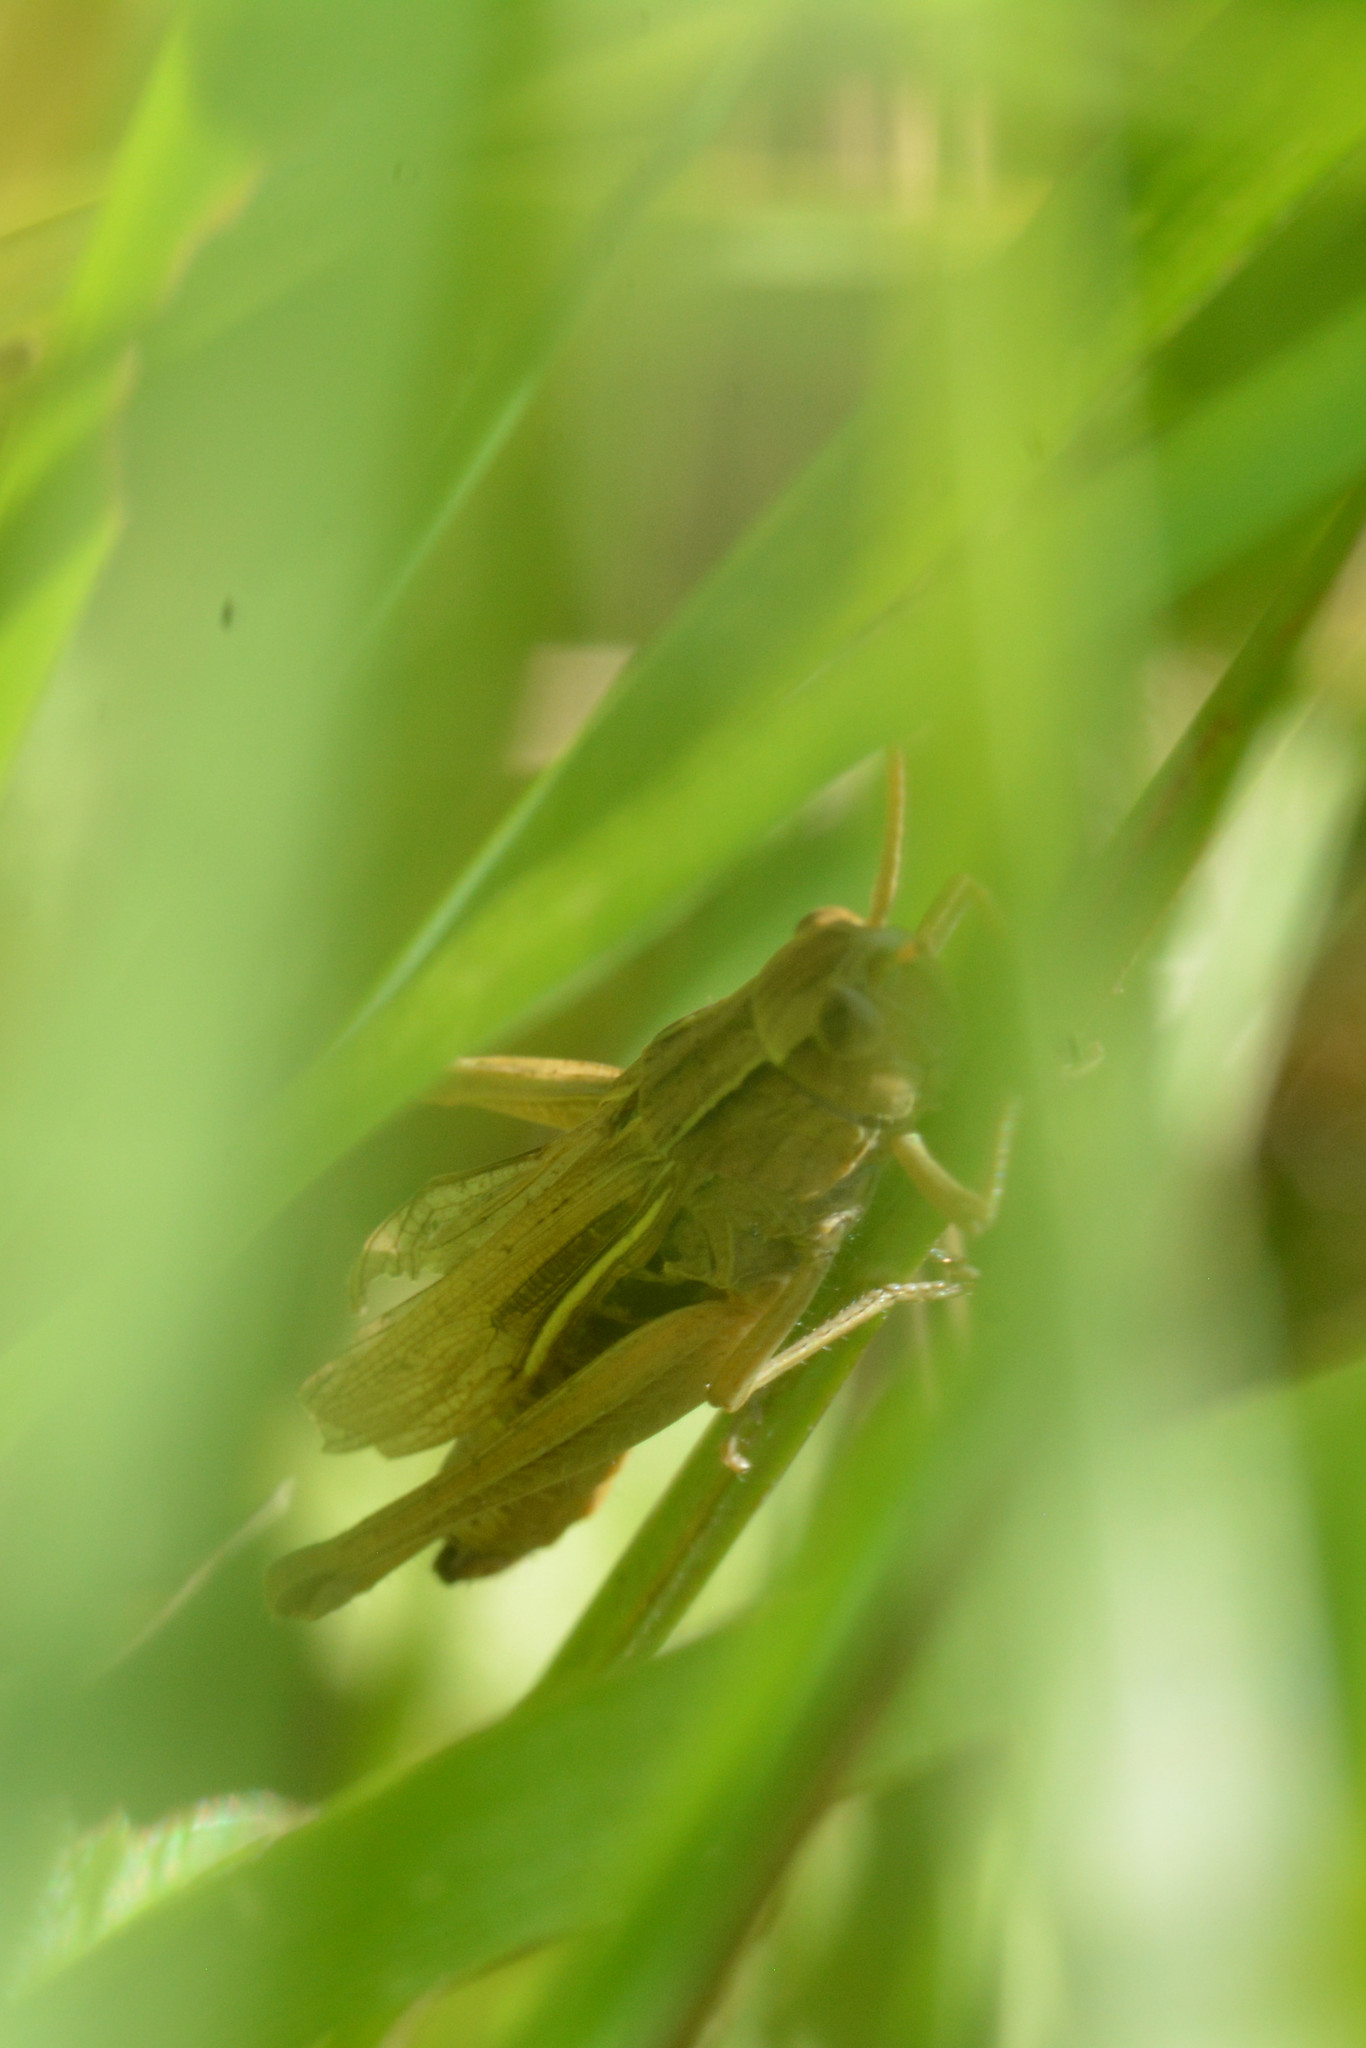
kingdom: Animalia
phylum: Arthropoda
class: Insecta
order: Orthoptera
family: Acrididae
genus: Chorthippus
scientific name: Chorthippus albomarginatus
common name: Lesser marsh grasshopper
